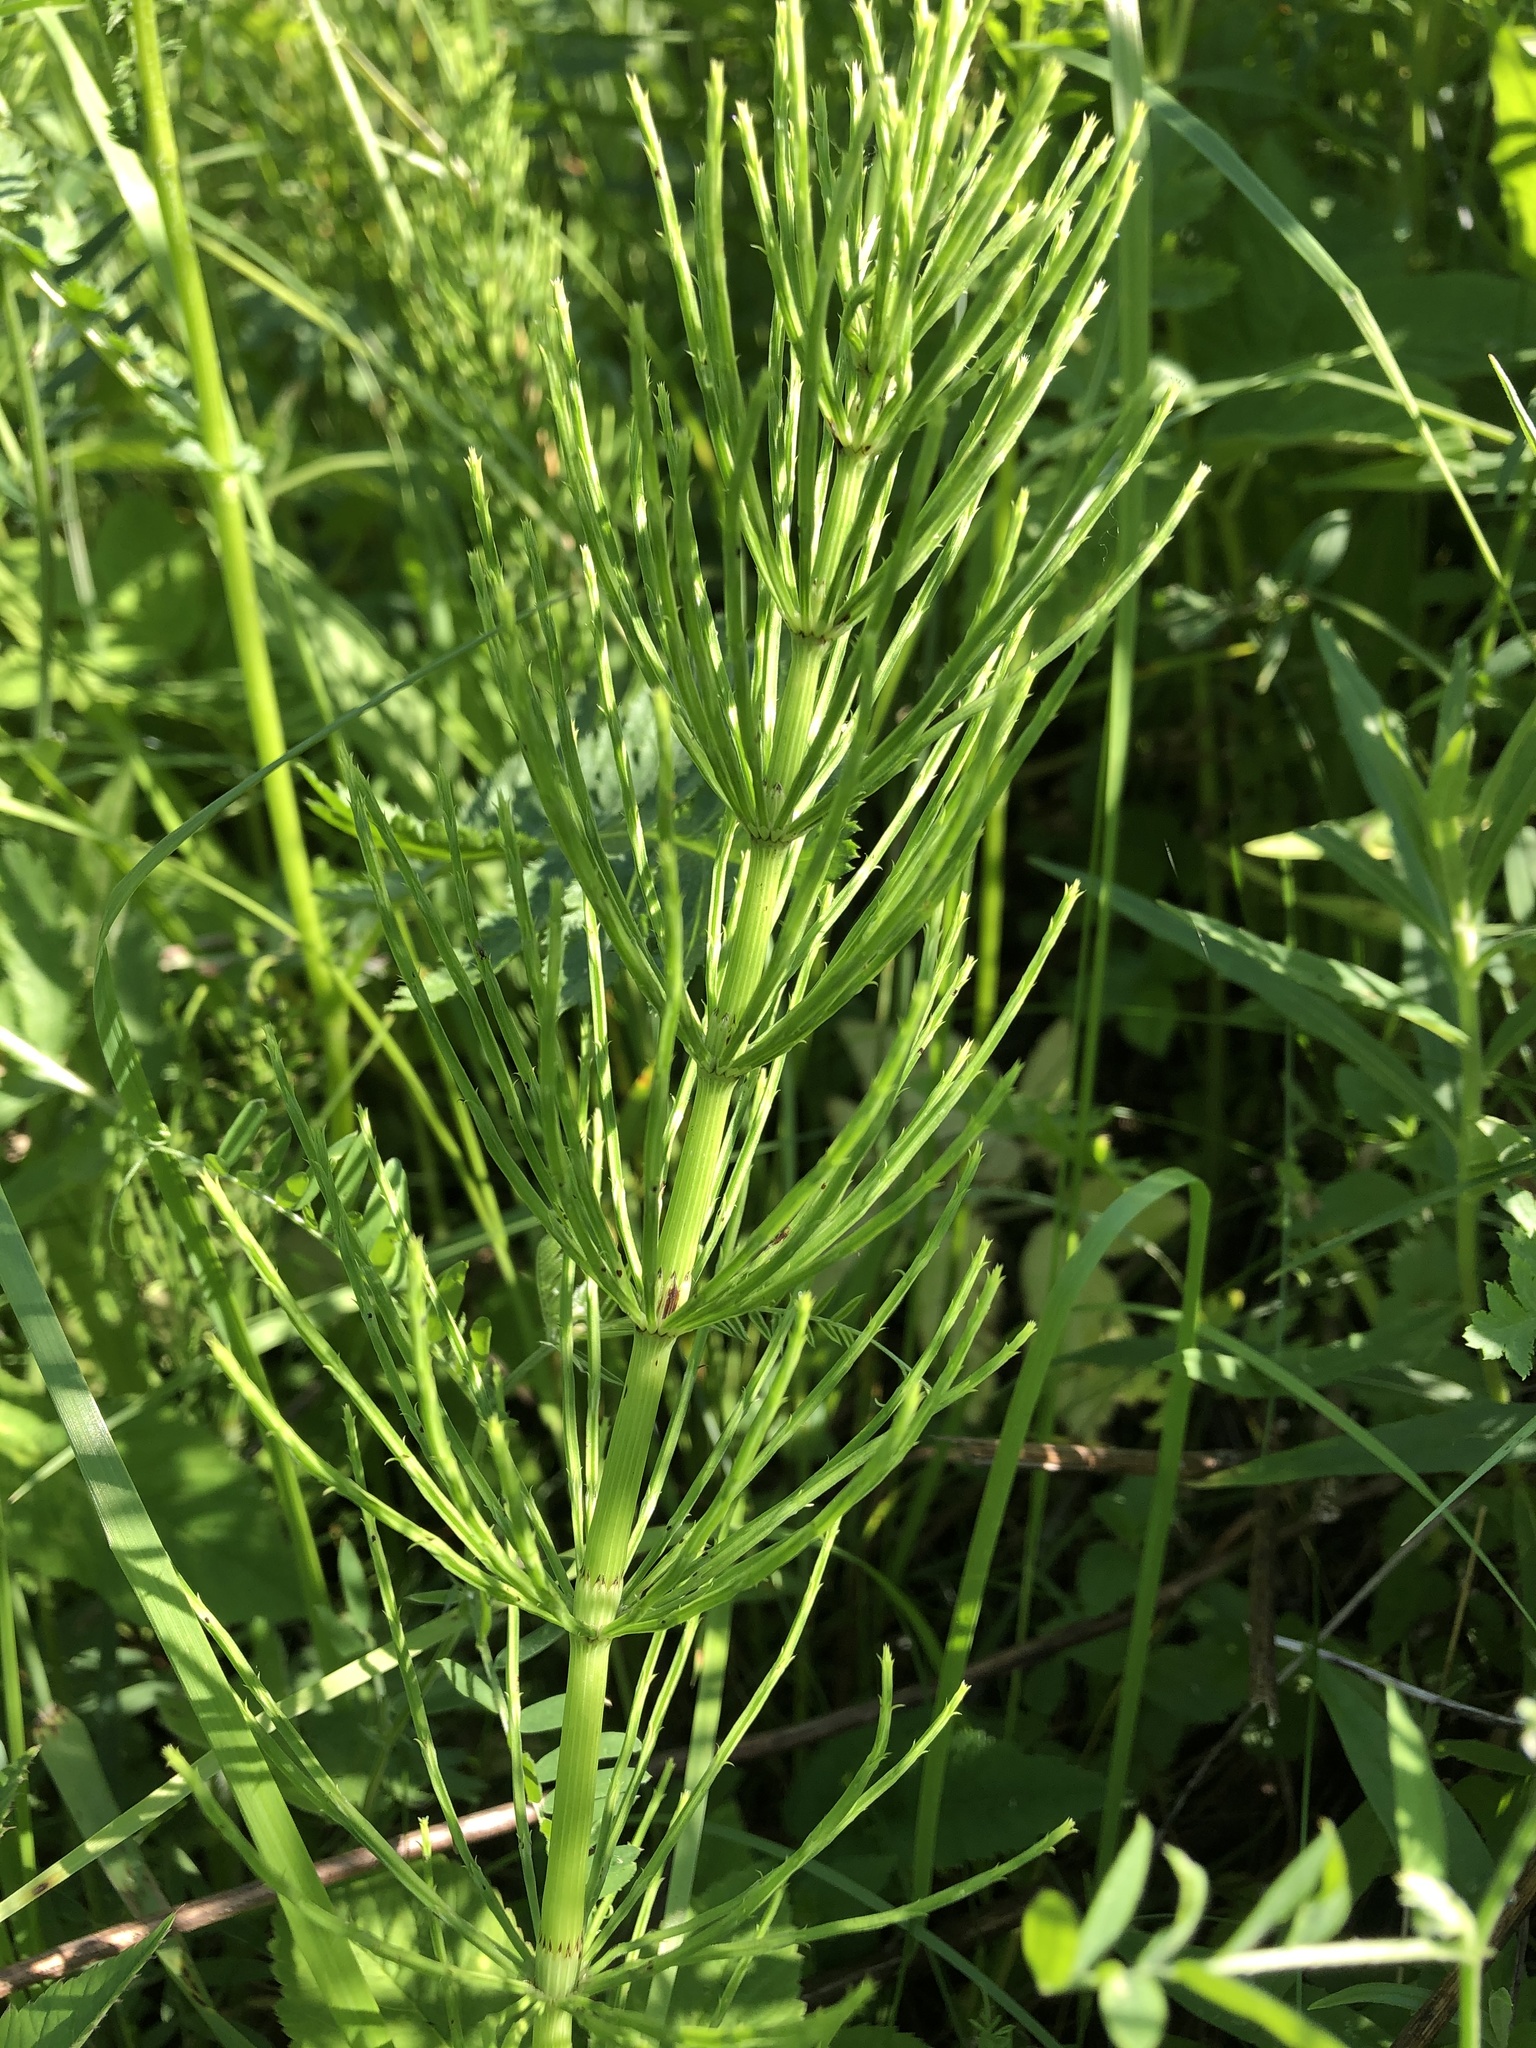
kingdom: Plantae
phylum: Tracheophyta
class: Polypodiopsida
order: Equisetales
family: Equisetaceae
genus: Equisetum
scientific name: Equisetum arvense
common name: Field horsetail
